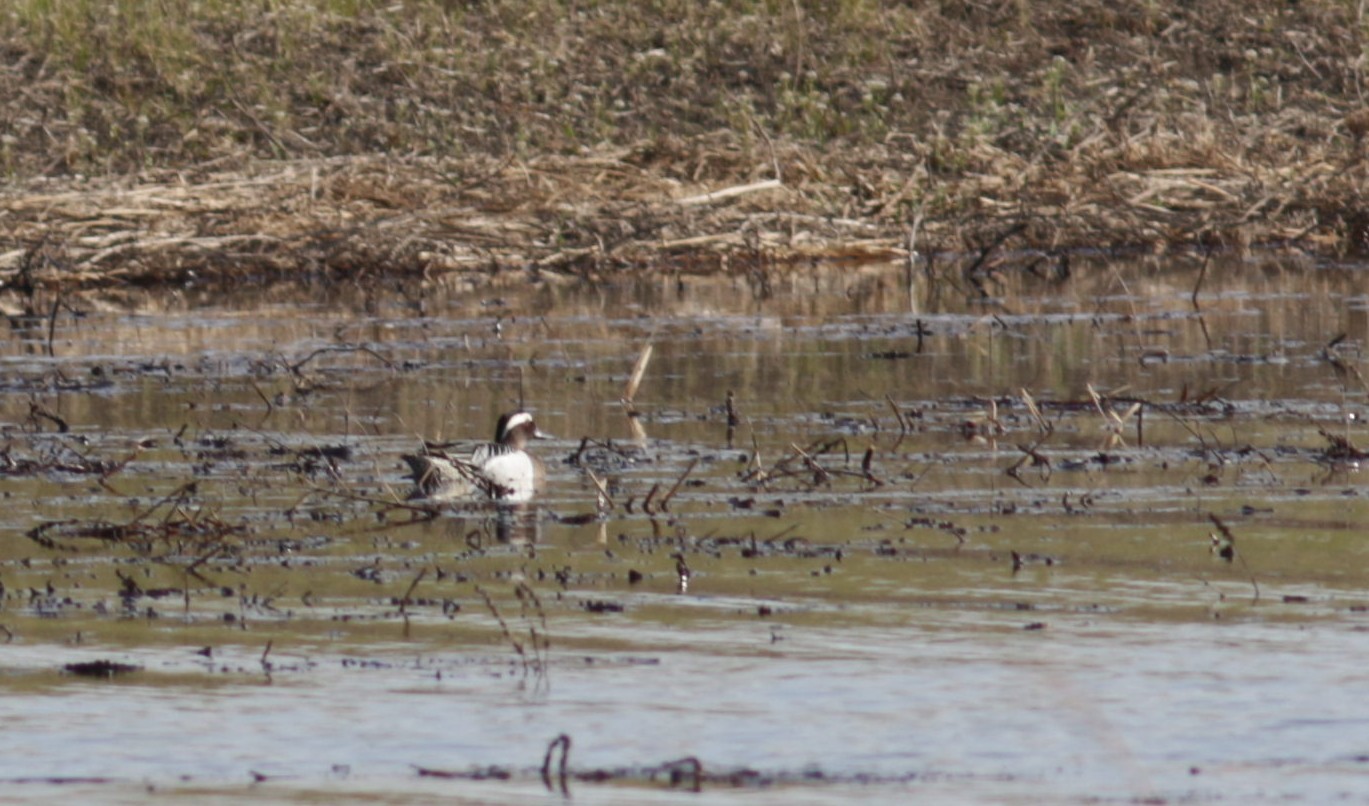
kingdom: Animalia
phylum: Chordata
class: Aves
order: Anseriformes
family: Anatidae
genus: Spatula
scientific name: Spatula querquedula
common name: Garganey
